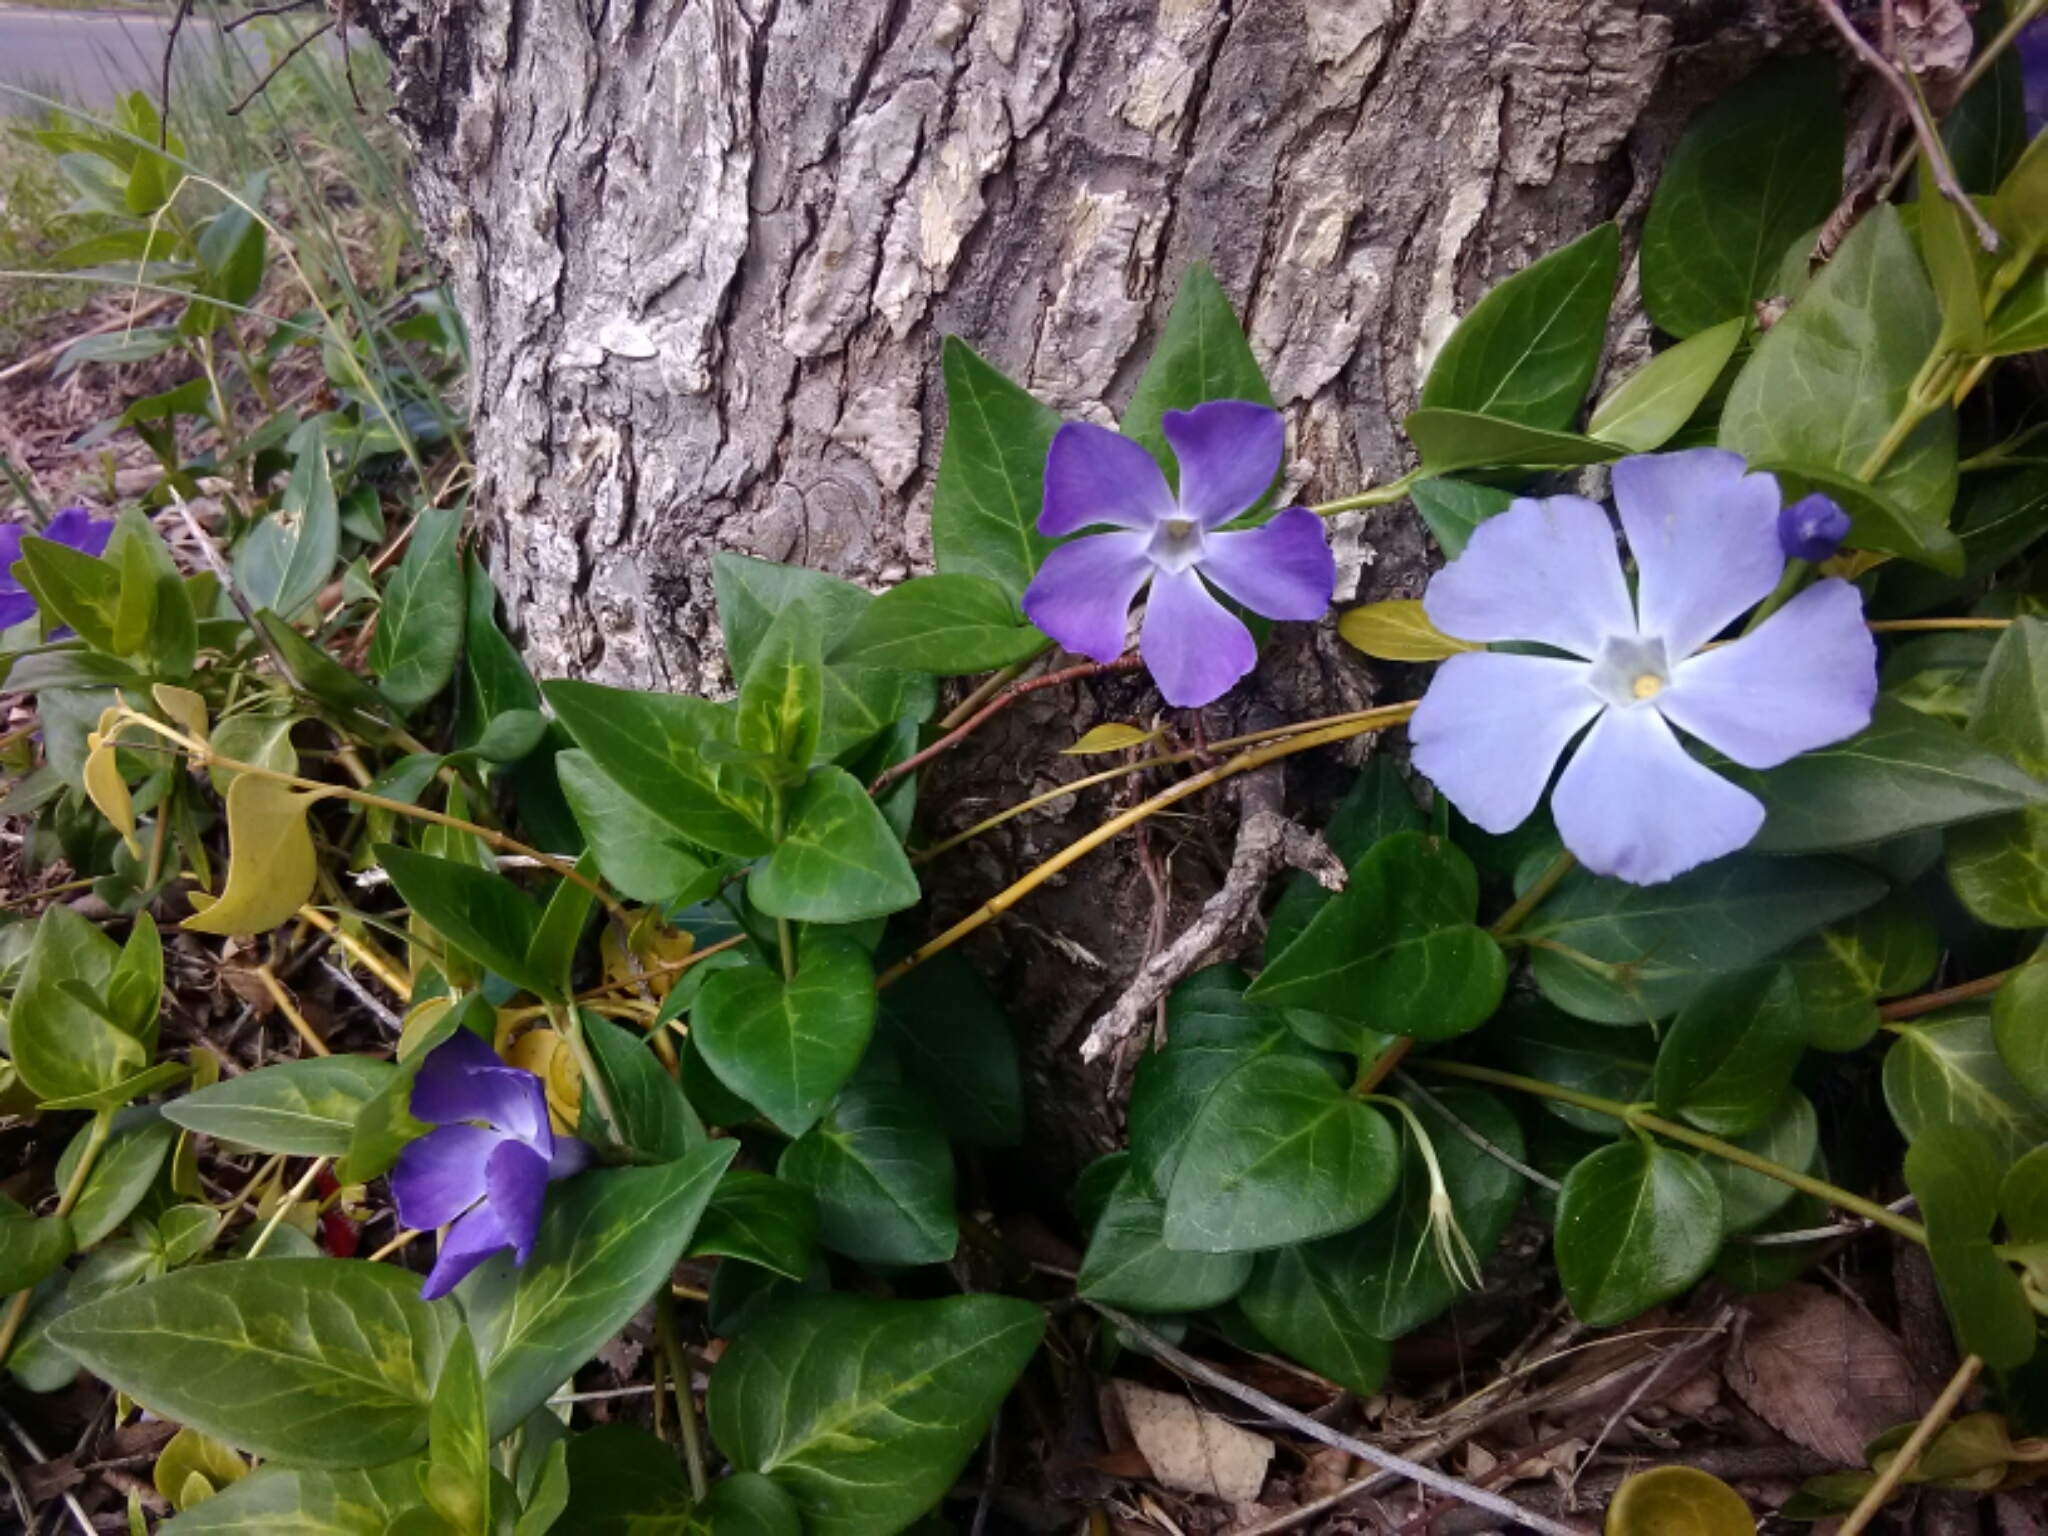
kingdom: Plantae
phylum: Tracheophyta
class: Magnoliopsida
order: Gentianales
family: Apocynaceae
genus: Vinca
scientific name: Vinca major
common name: Greater periwinkle
